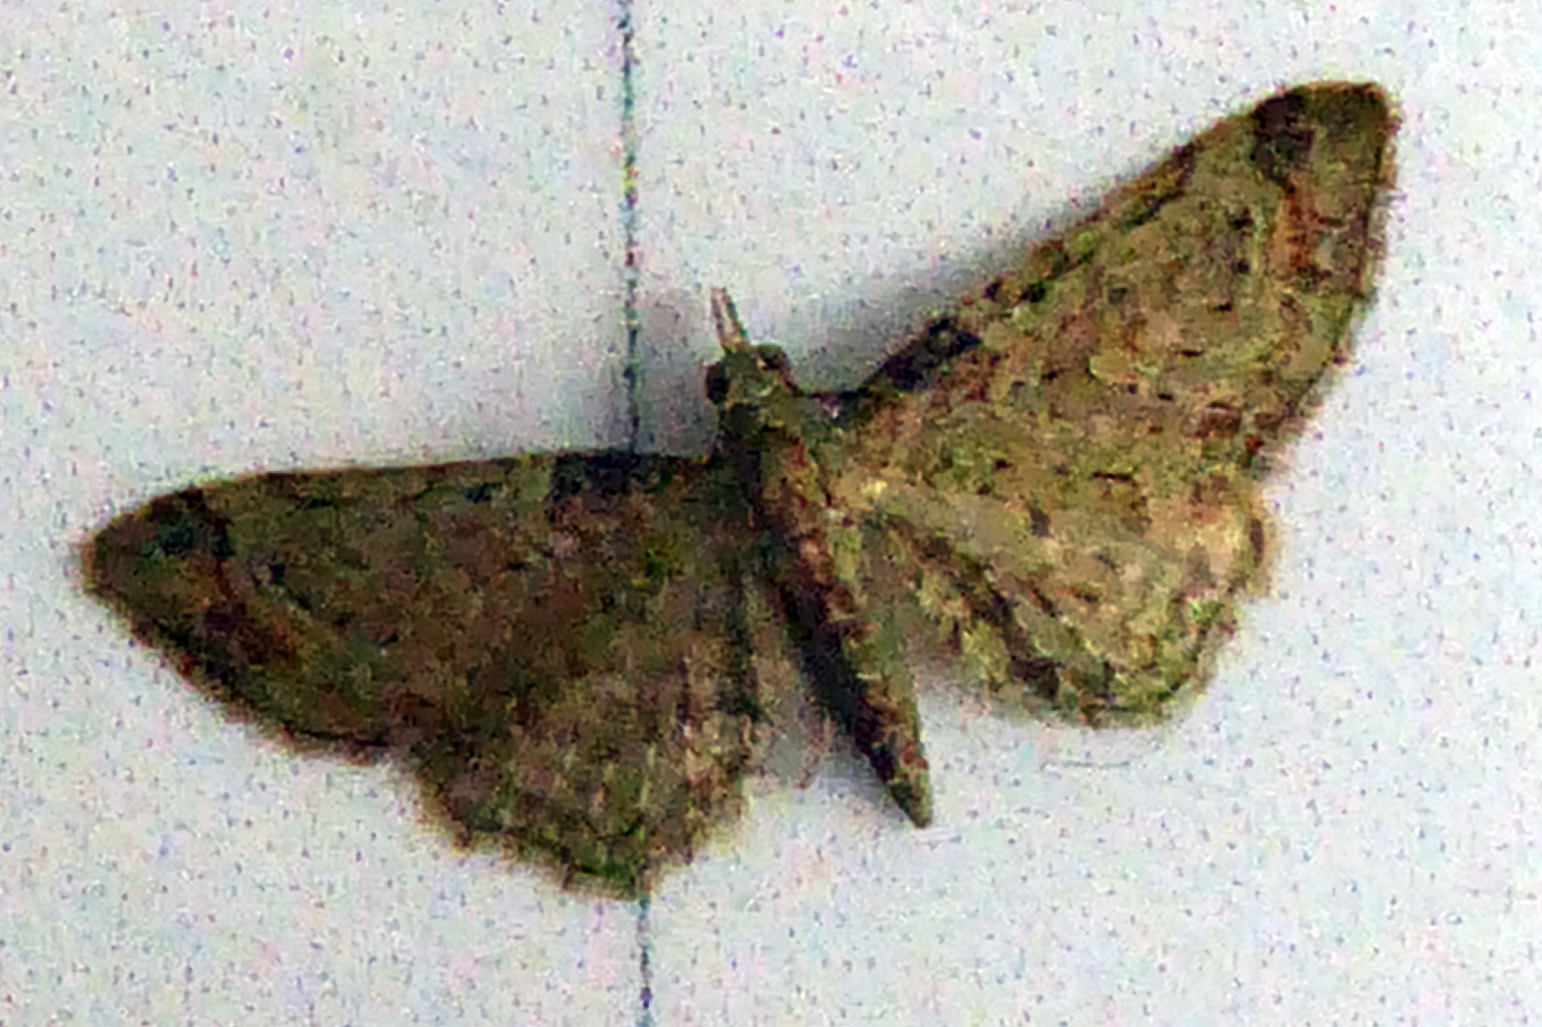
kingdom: Animalia
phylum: Arthropoda
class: Insecta
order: Lepidoptera
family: Geometridae
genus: Pasiphila
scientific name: Pasiphila plinthina
